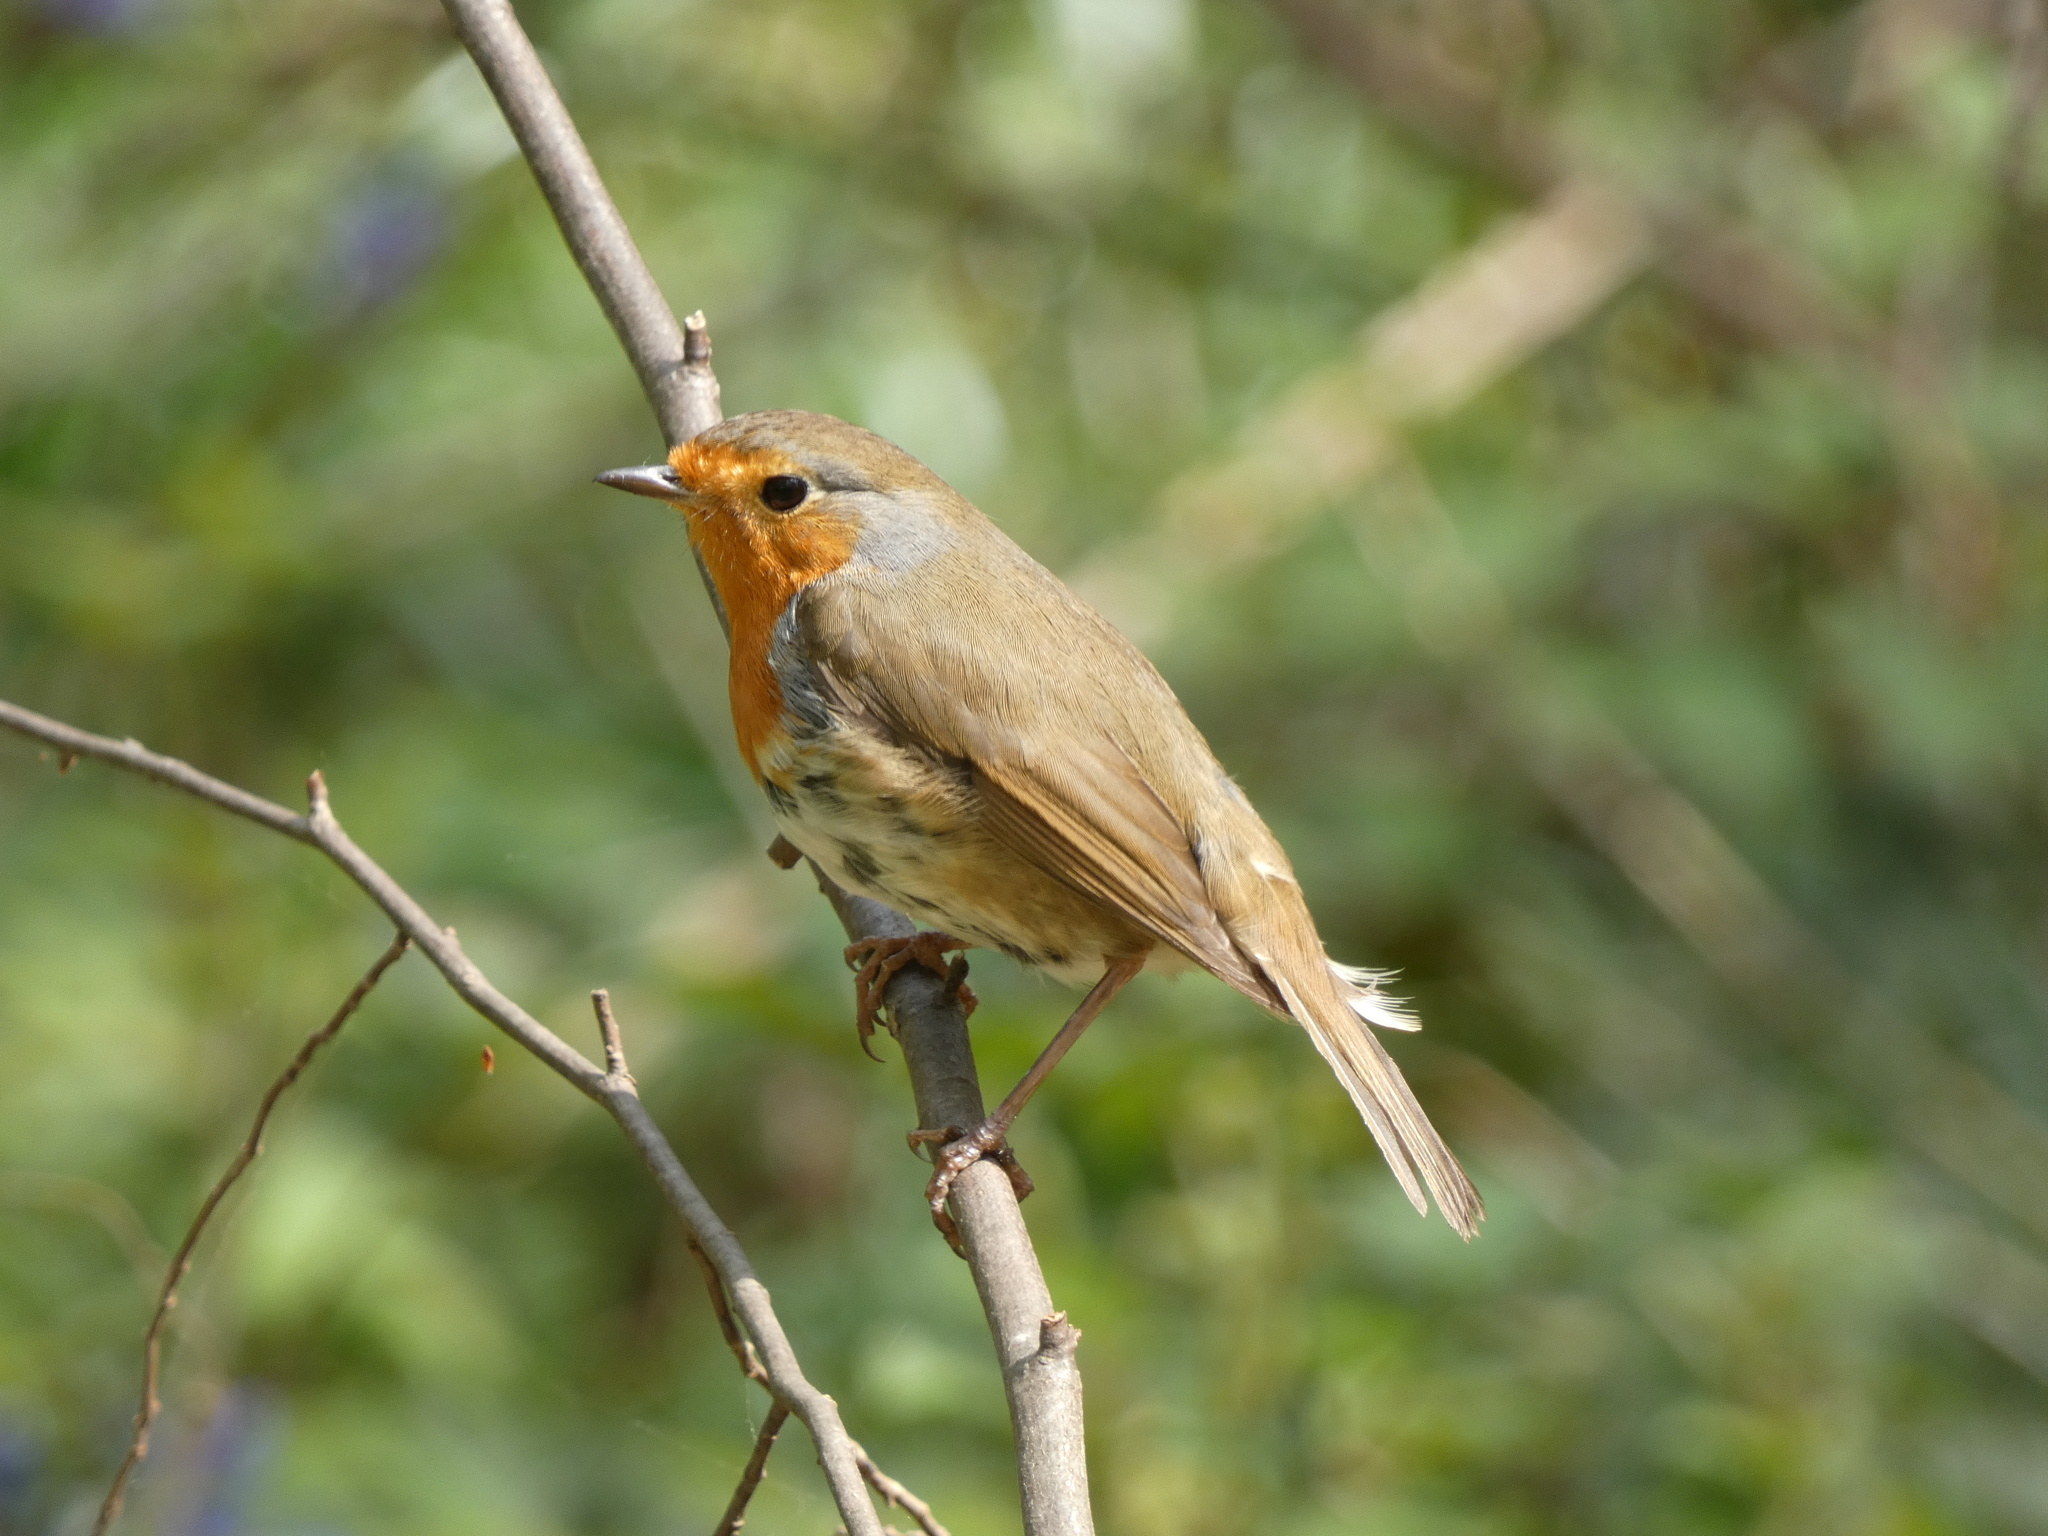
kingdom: Animalia
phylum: Chordata
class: Aves
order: Passeriformes
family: Muscicapidae
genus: Erithacus
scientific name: Erithacus rubecula
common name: European robin
